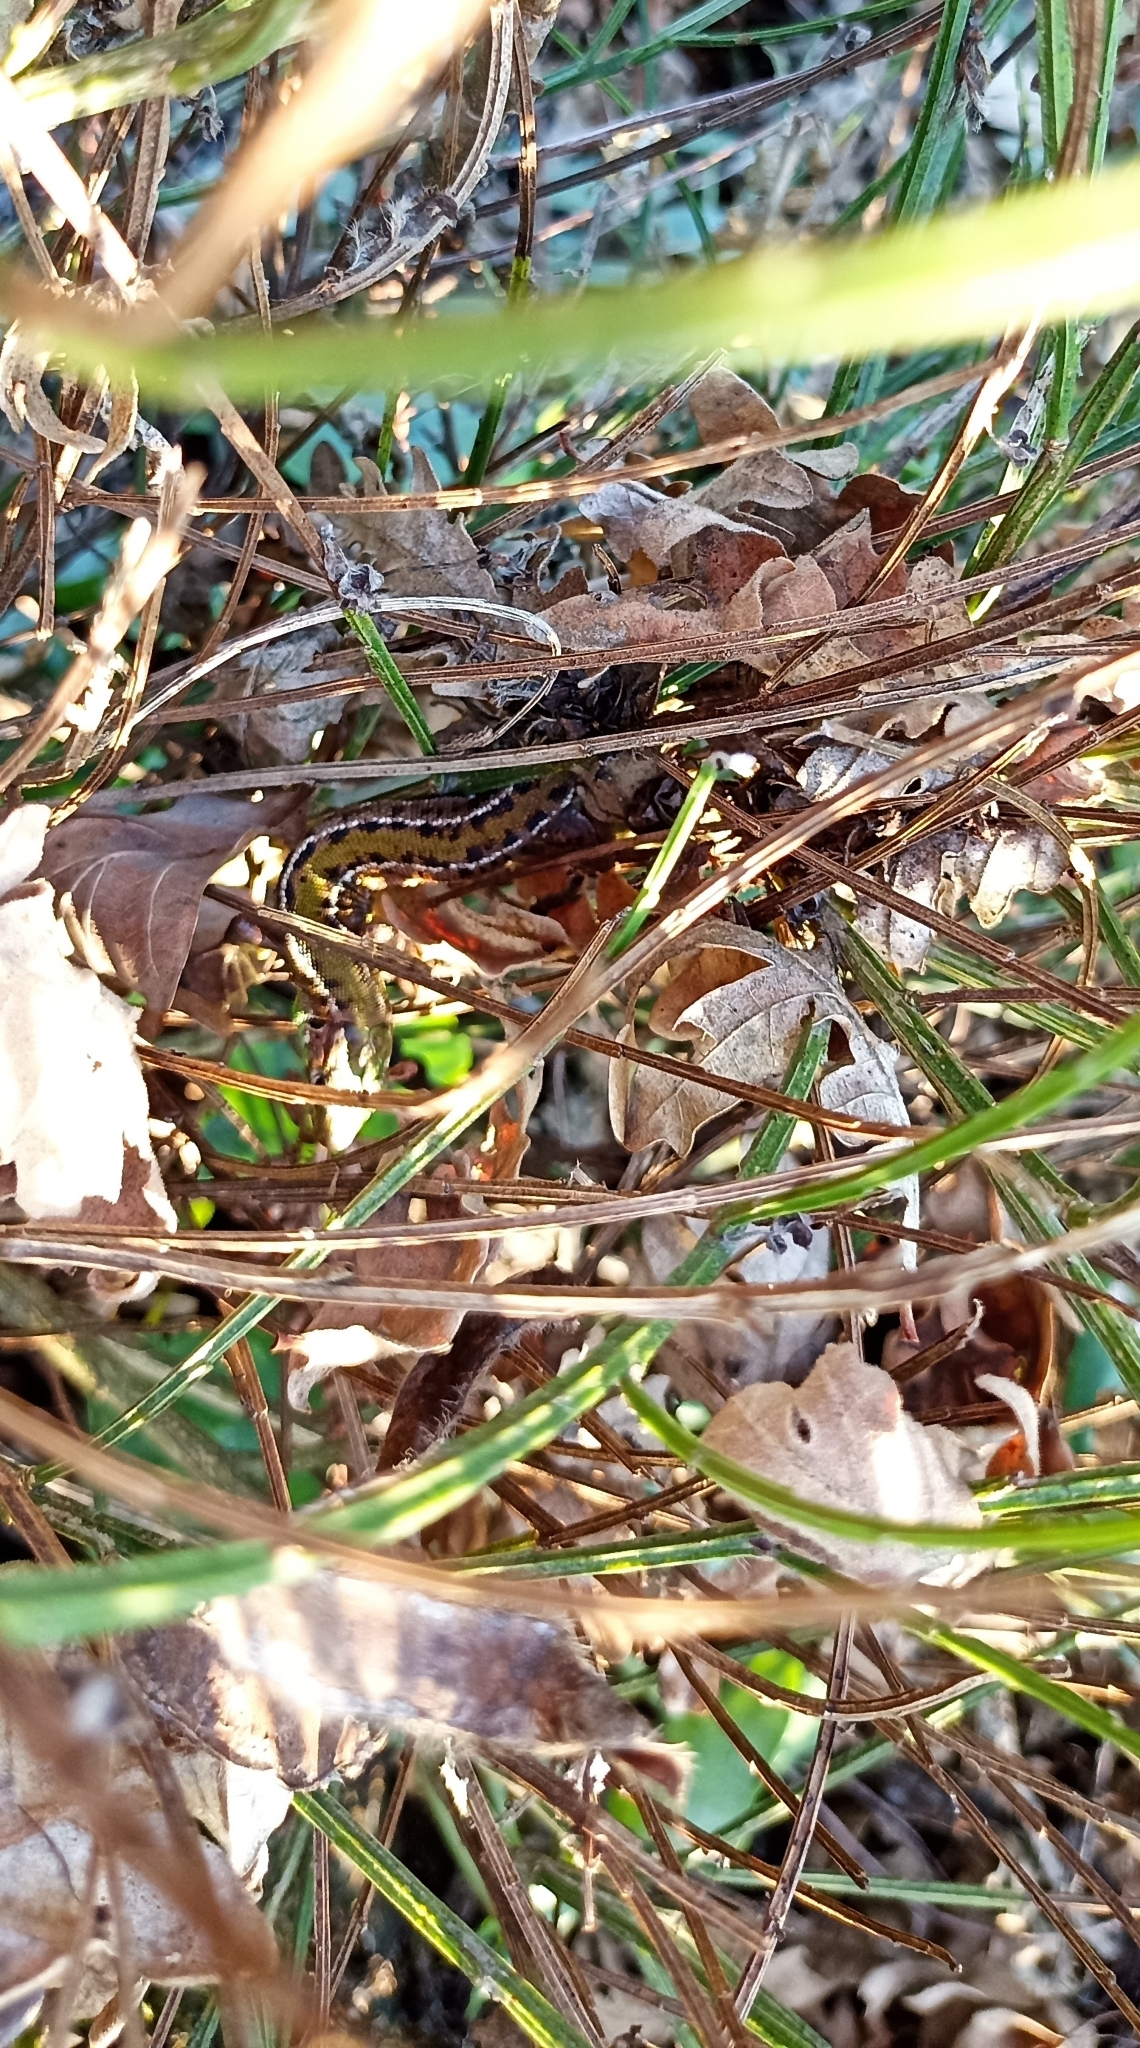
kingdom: Animalia
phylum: Chordata
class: Squamata
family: Lacertidae
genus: Lacerta
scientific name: Lacerta bilineata
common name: Western green lizard
